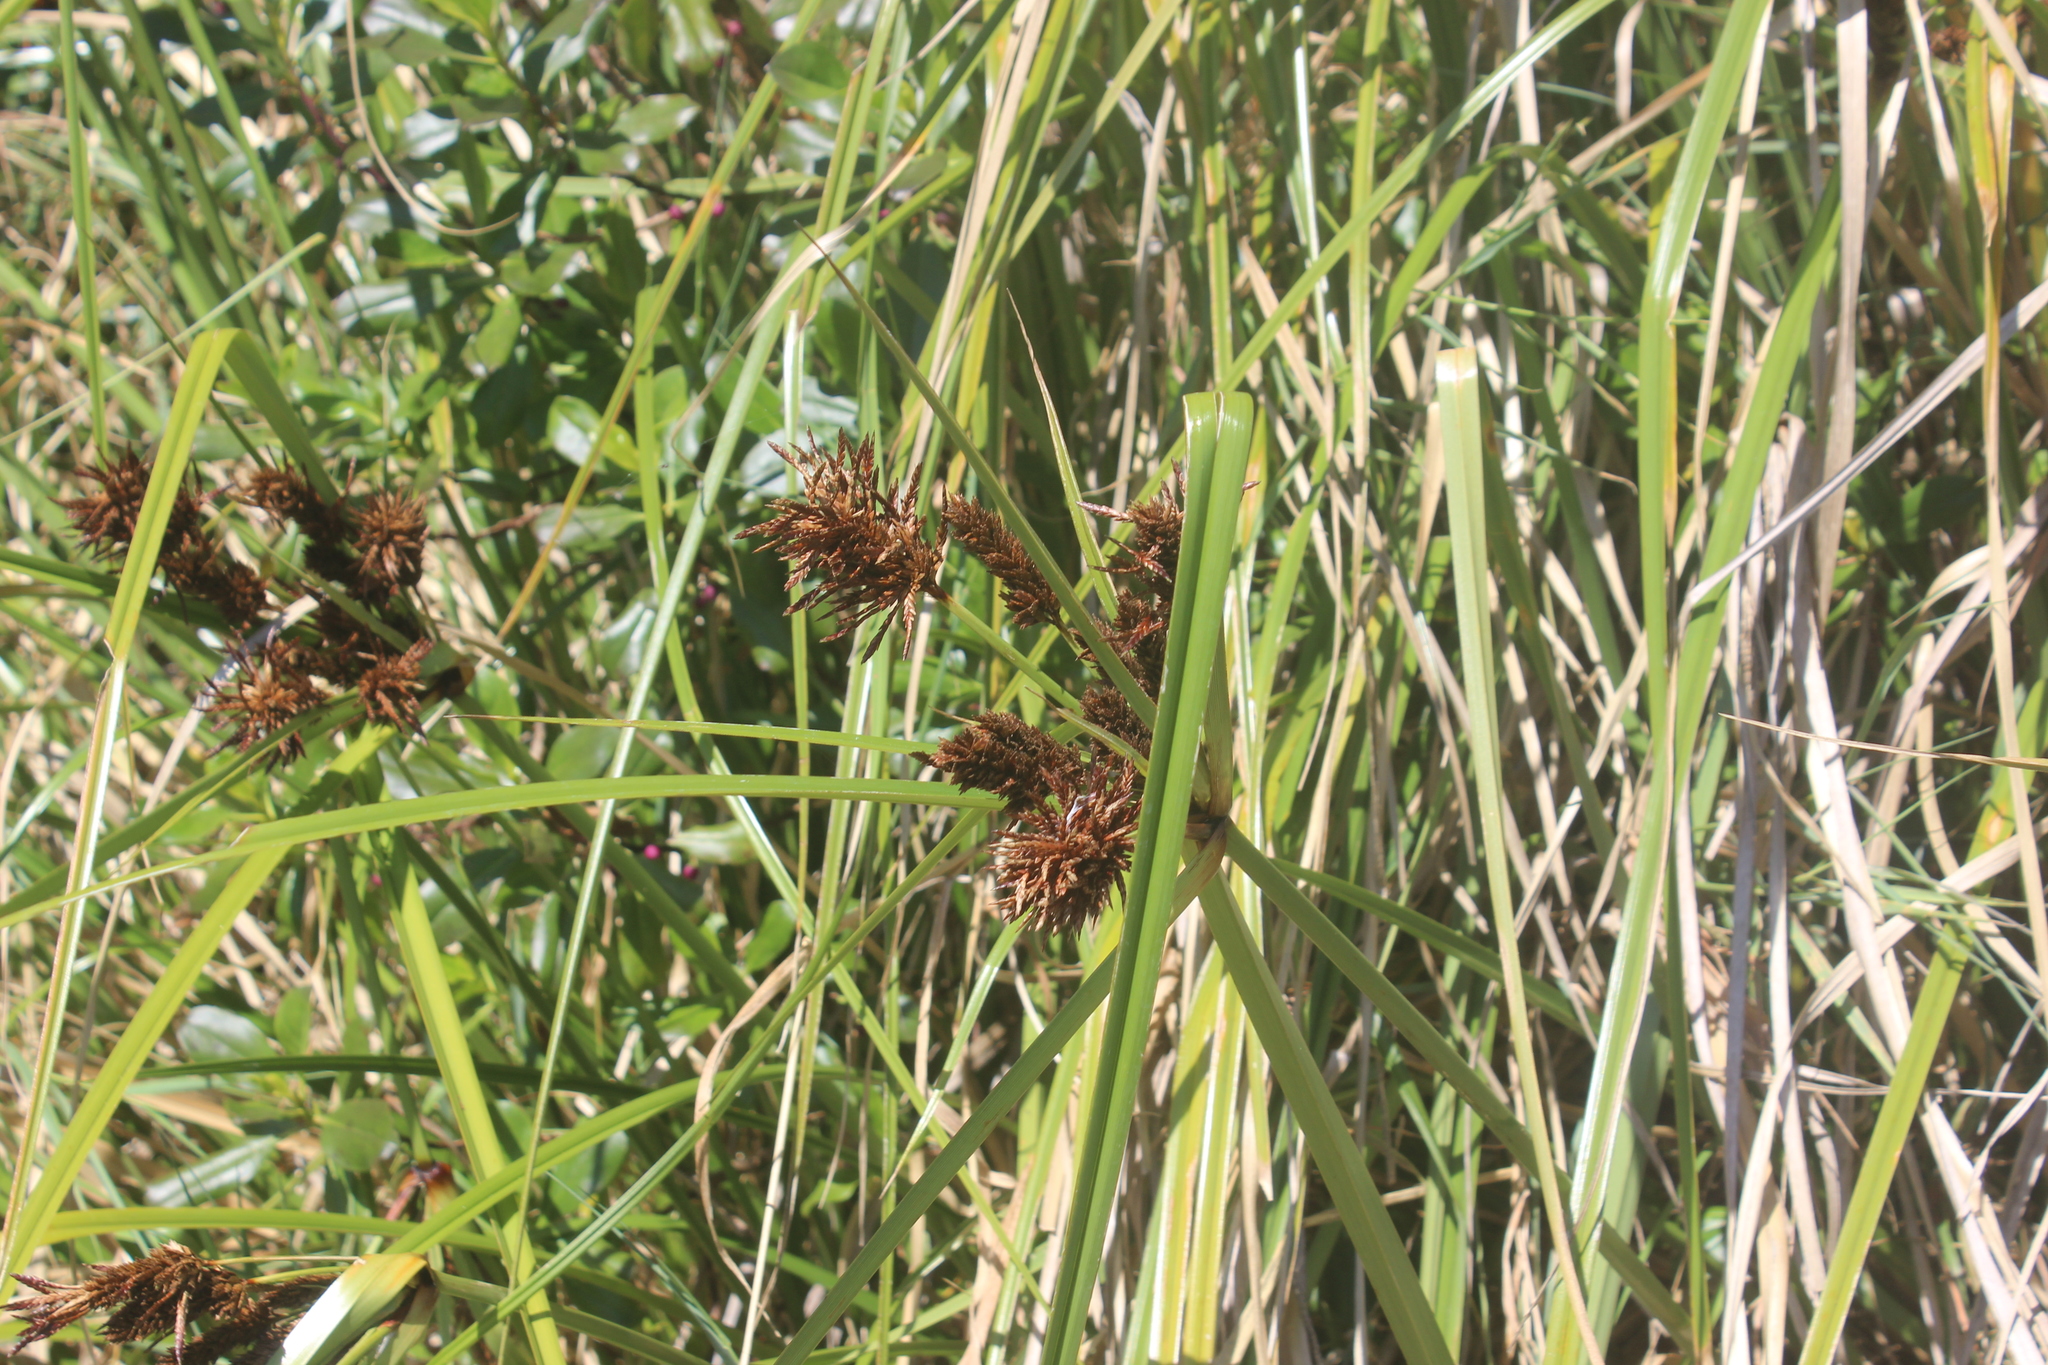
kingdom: Plantae
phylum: Tracheophyta
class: Liliopsida
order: Poales
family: Cyperaceae
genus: Cyperus
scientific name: Cyperus ustulatus
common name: Giant umbrella-sedge
